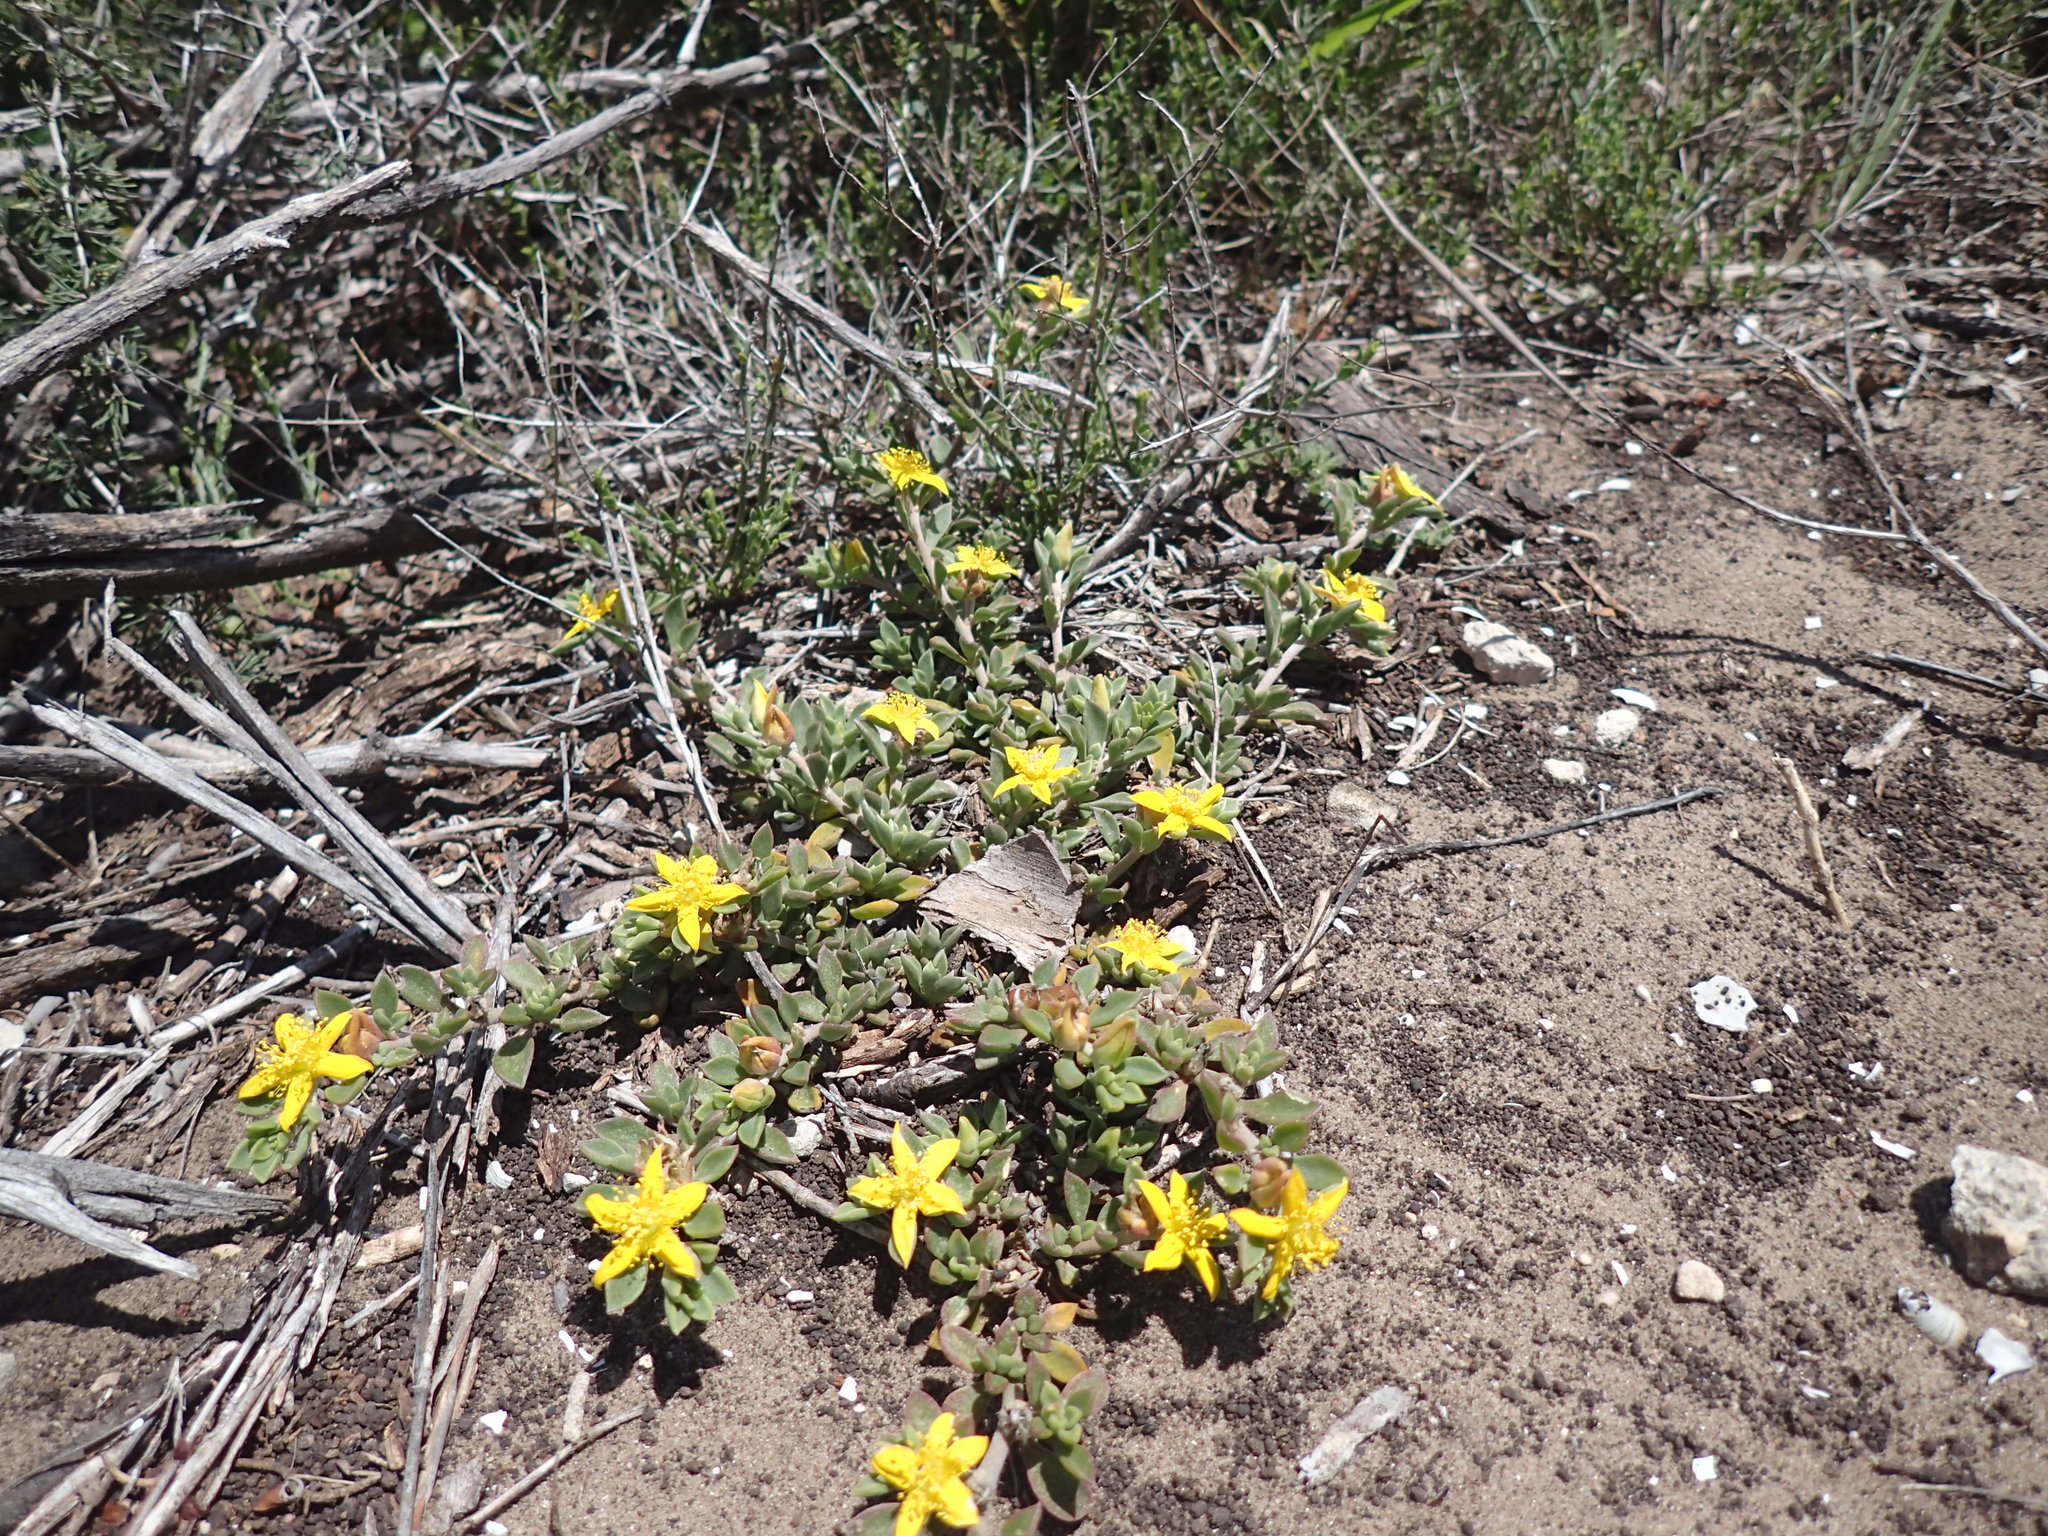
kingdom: Plantae
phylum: Tracheophyta
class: Magnoliopsida
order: Caryophyllales
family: Aizoaceae
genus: Aizoon
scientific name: Aizoon rigidum
